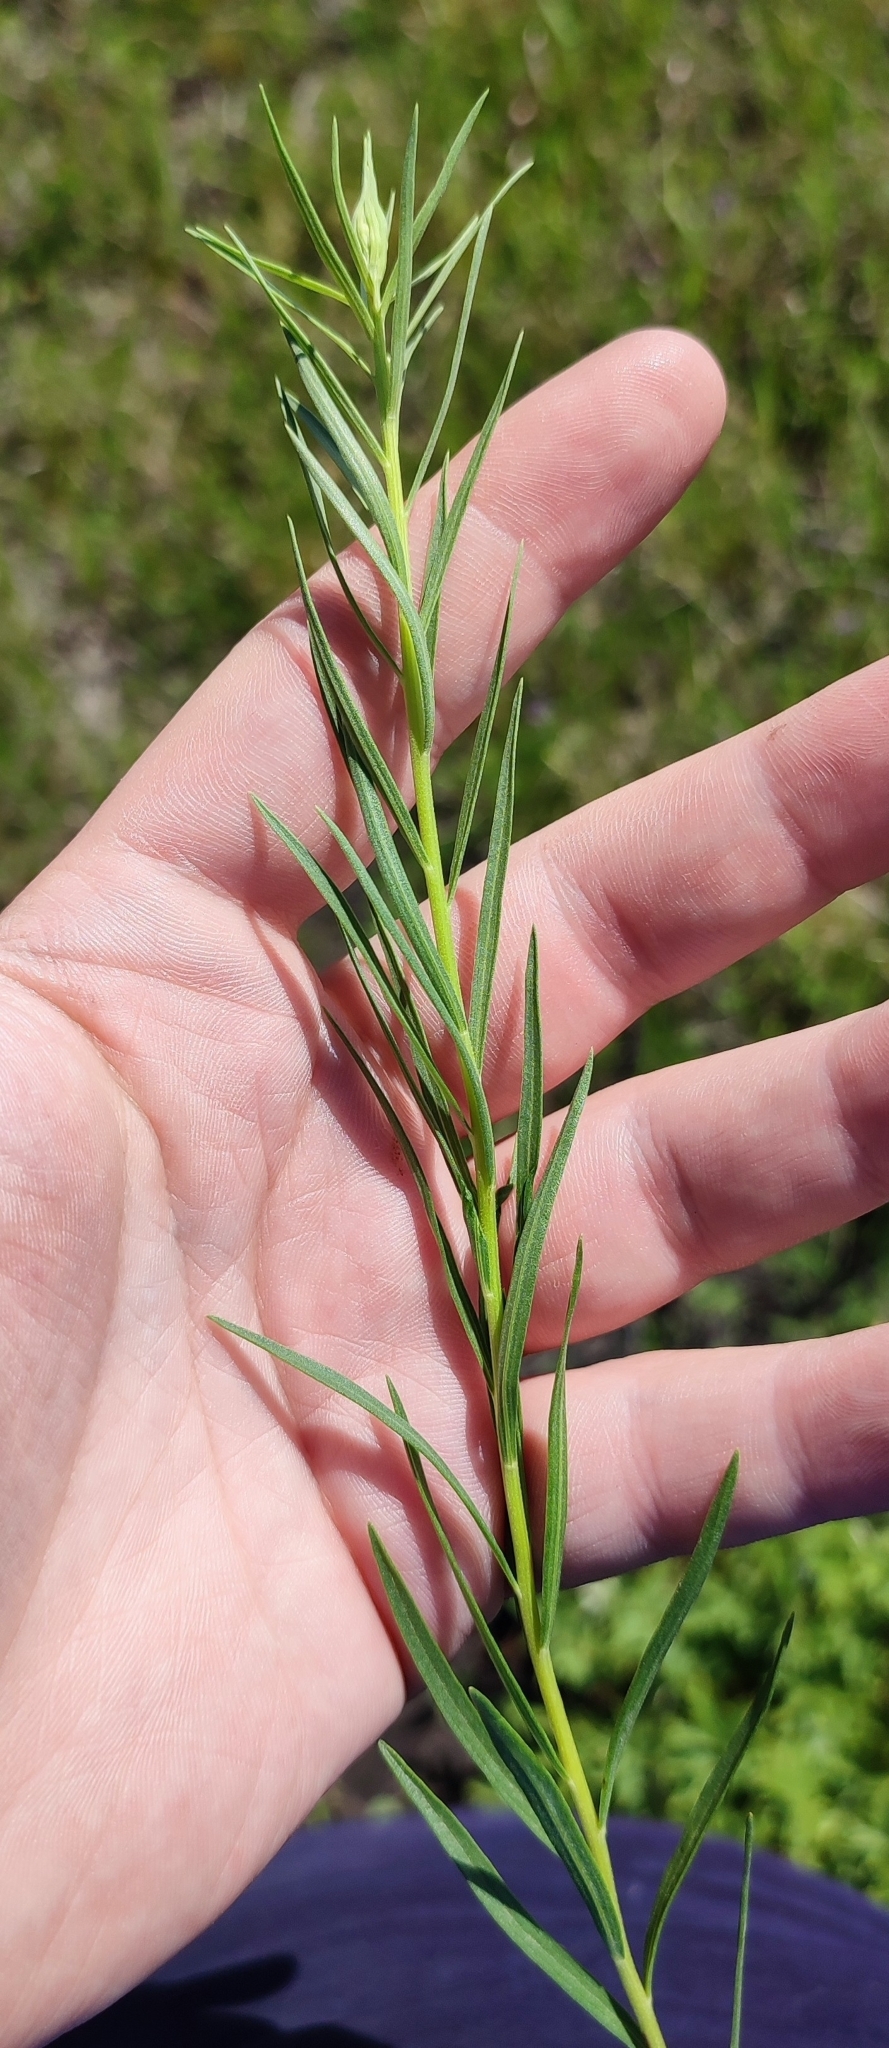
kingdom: Plantae
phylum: Tracheophyta
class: Magnoliopsida
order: Asterales
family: Asteraceae
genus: Artemisia
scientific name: Artemisia dracunculus
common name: Tarragon
